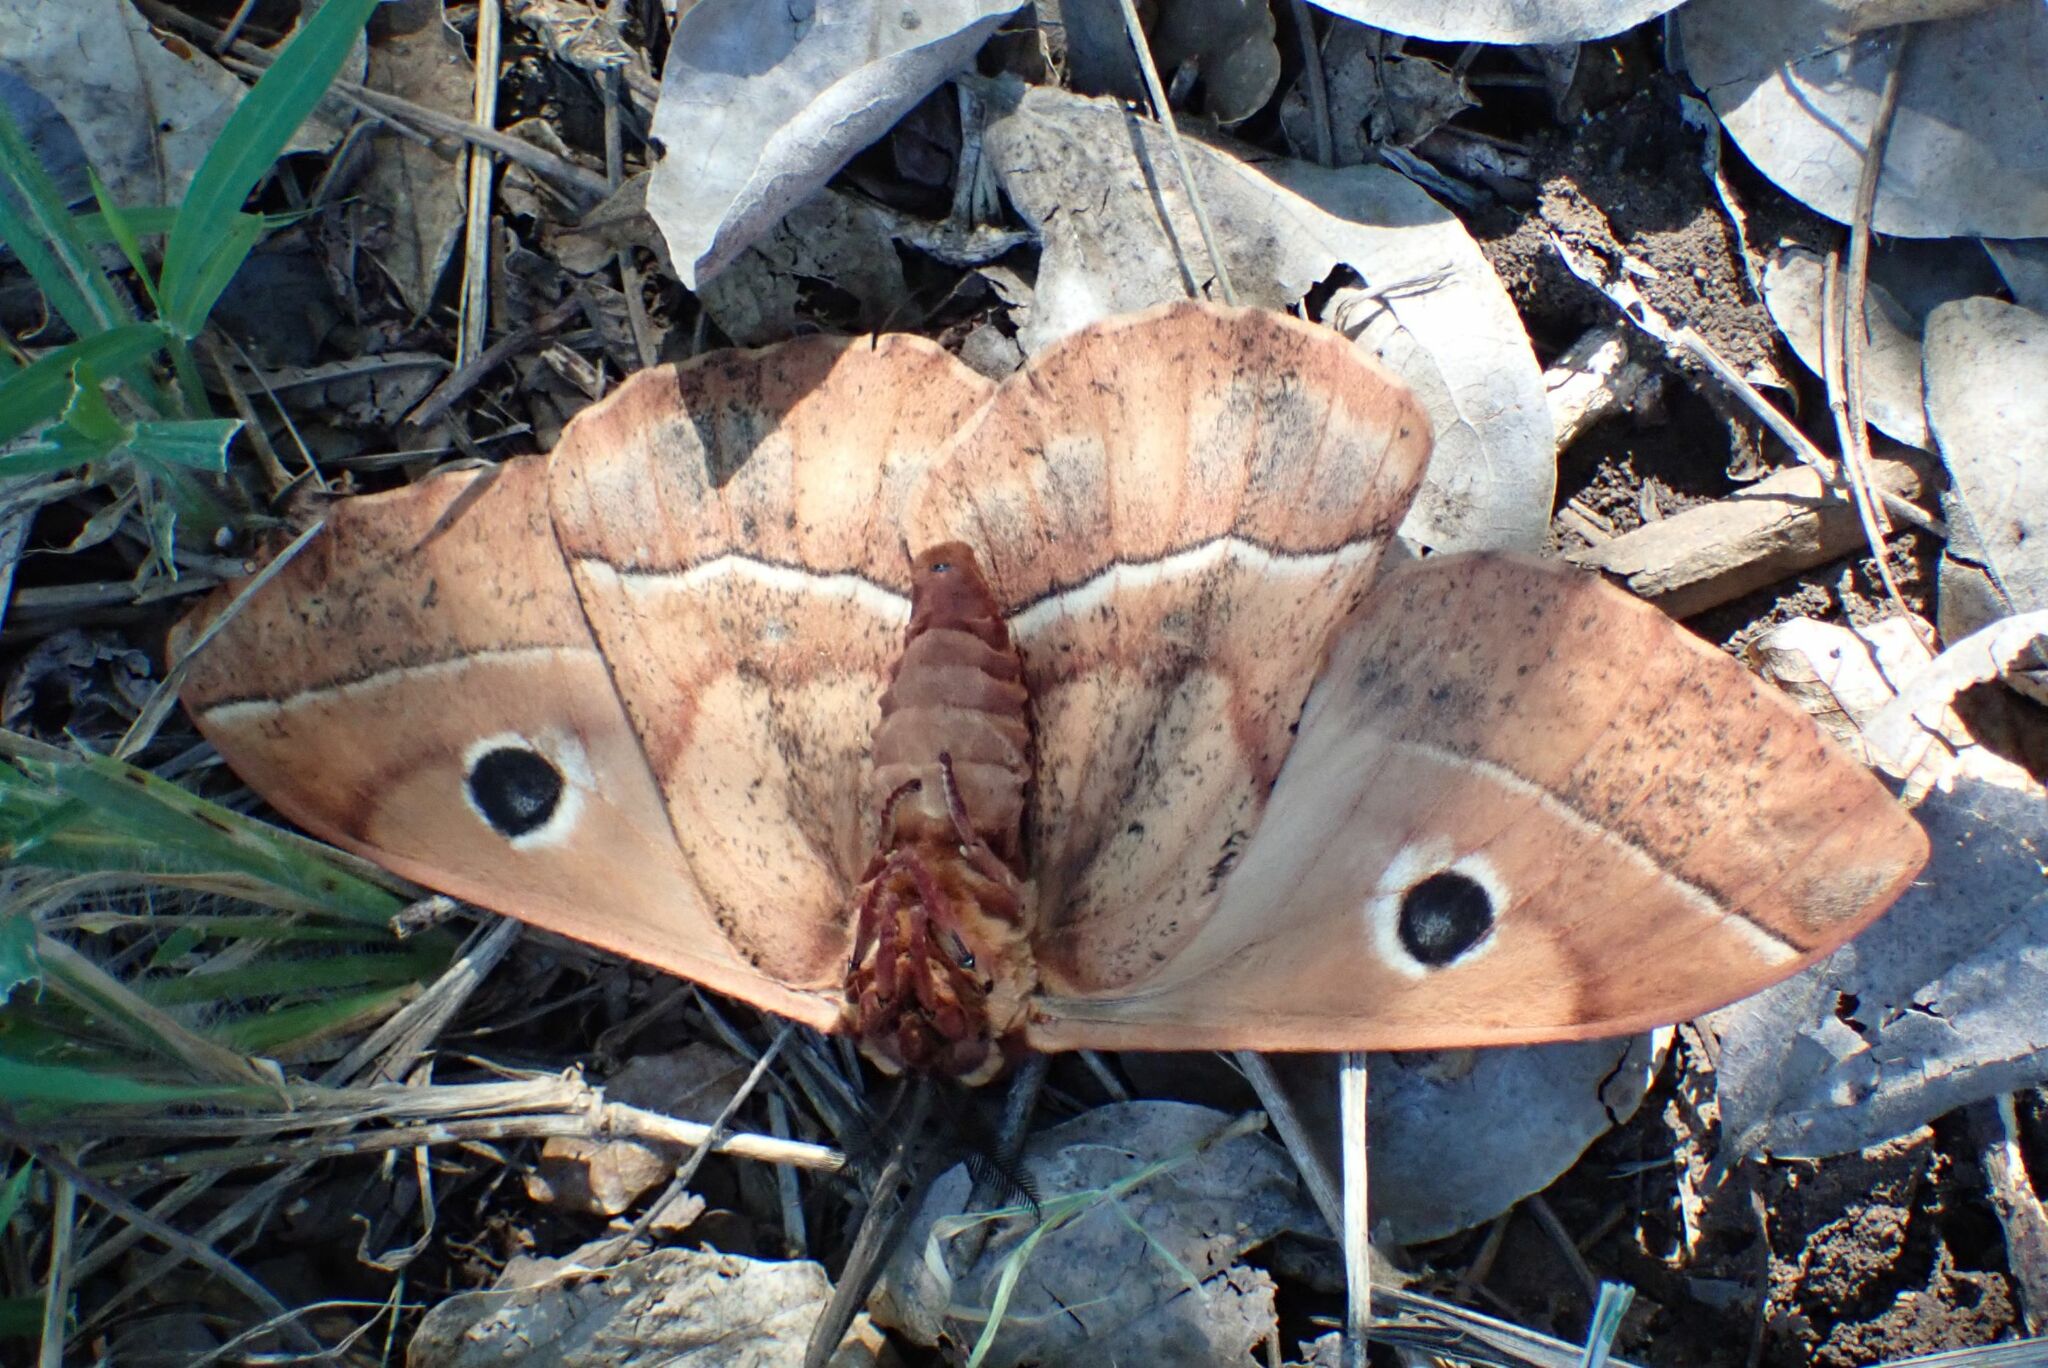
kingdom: Animalia
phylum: Arthropoda
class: Insecta
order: Lepidoptera
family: Saturniidae
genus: Melanocera
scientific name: Melanocera menippe
